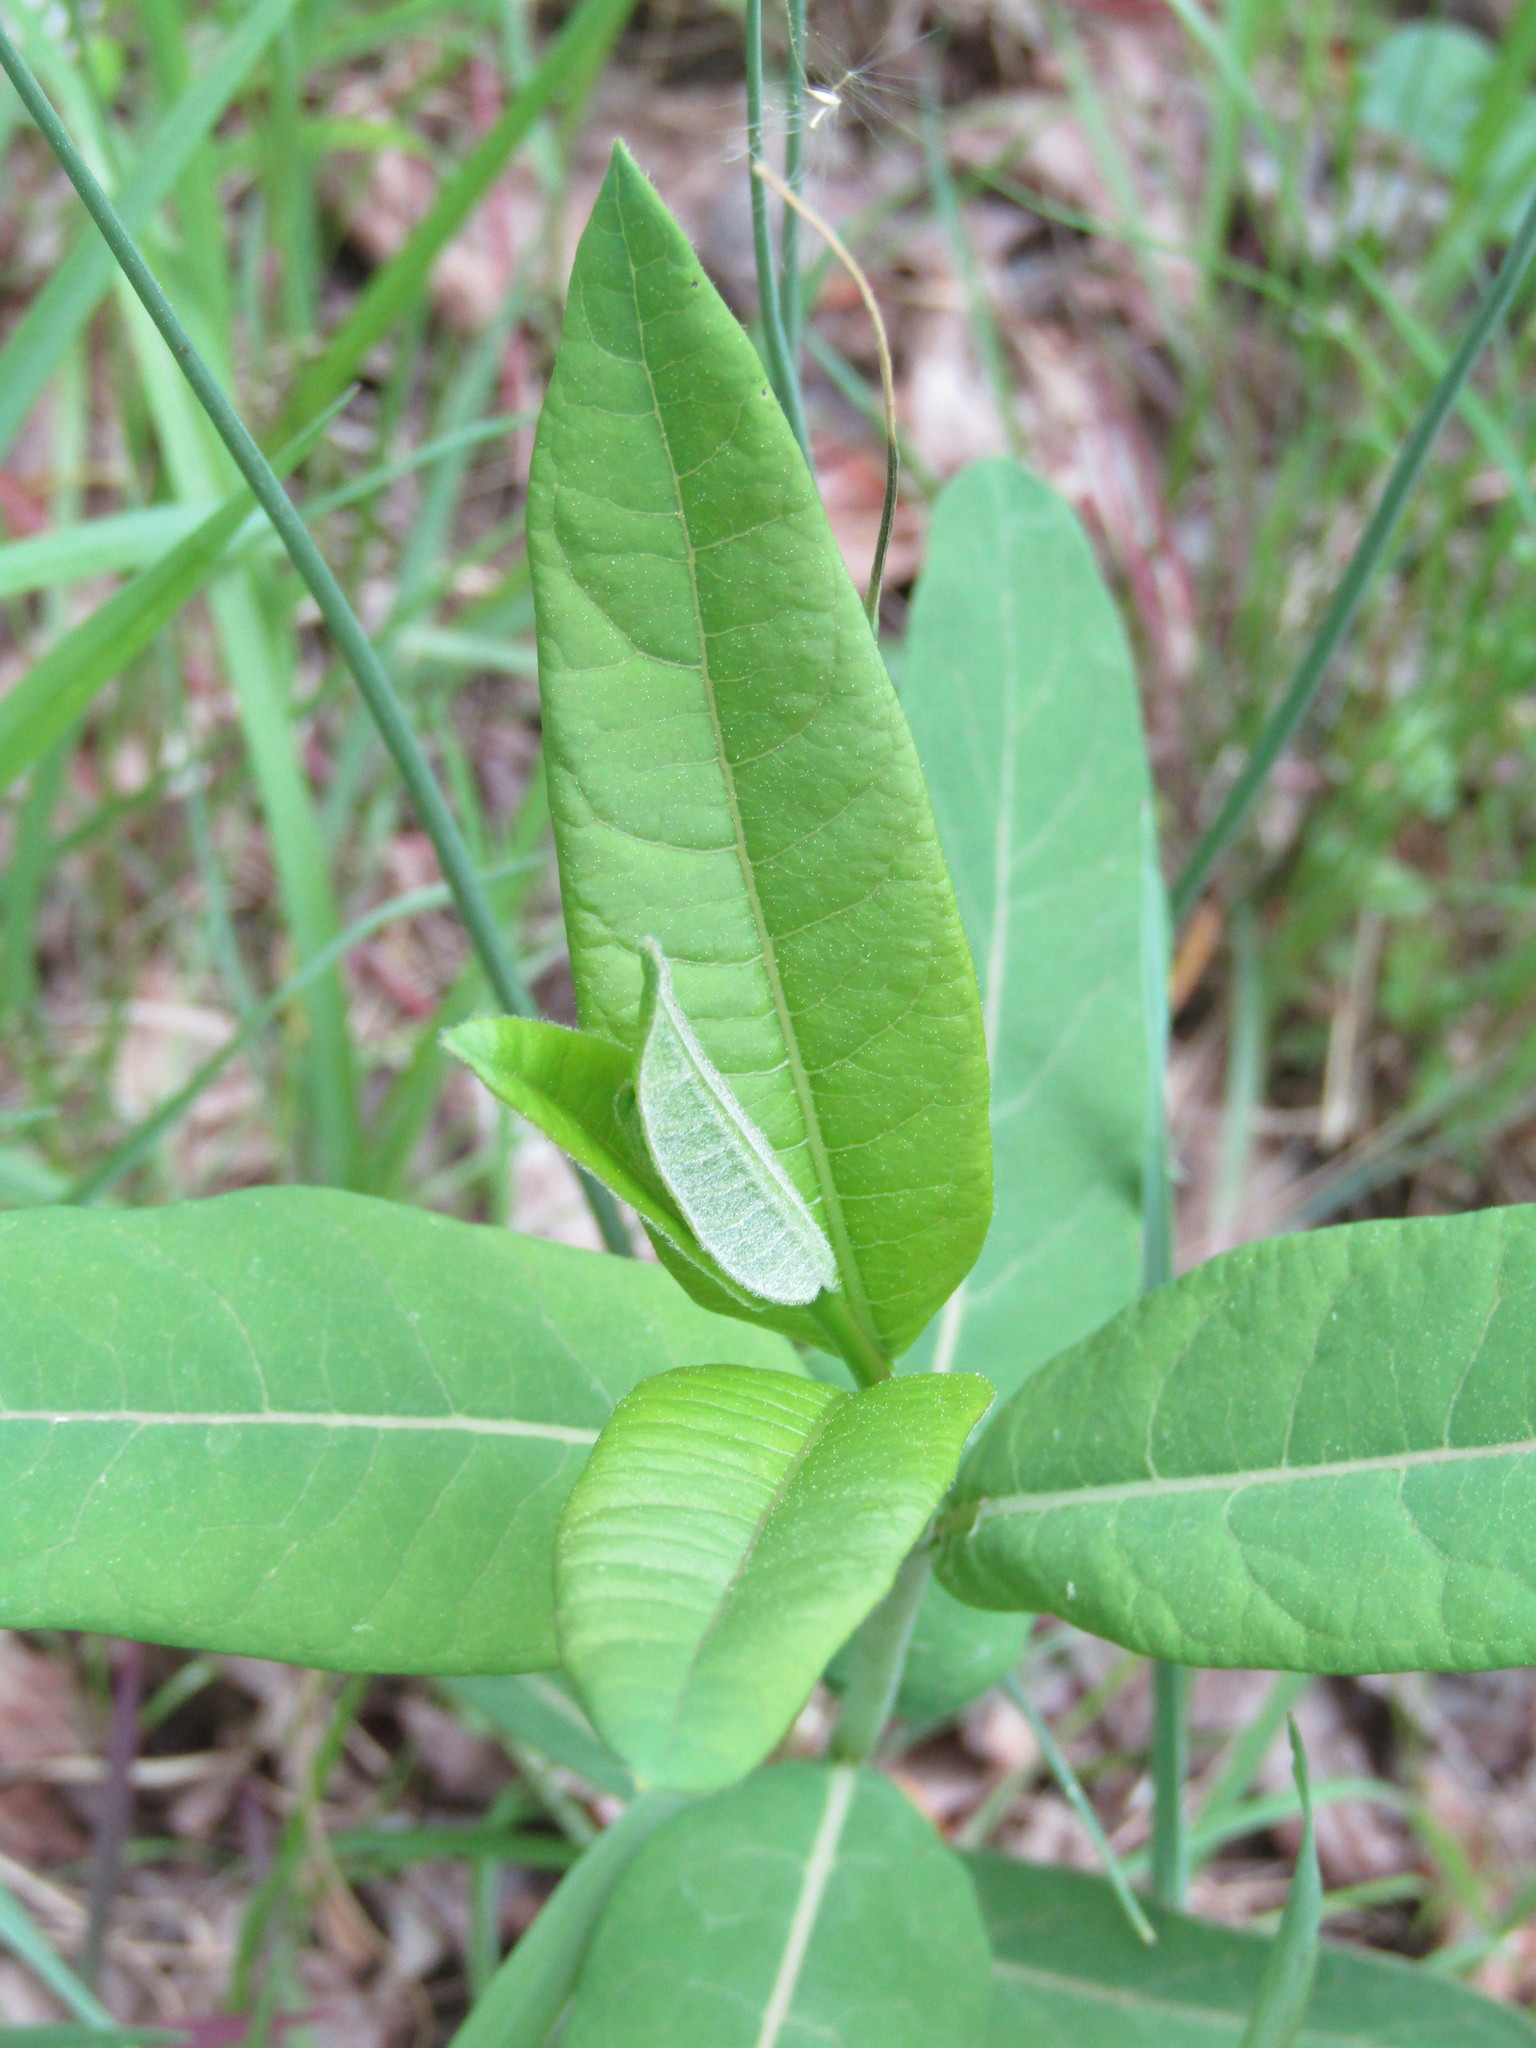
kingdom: Plantae
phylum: Tracheophyta
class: Magnoliopsida
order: Gentianales
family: Apocynaceae
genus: Asclepias
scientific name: Asclepias syriaca
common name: Common milkweed
